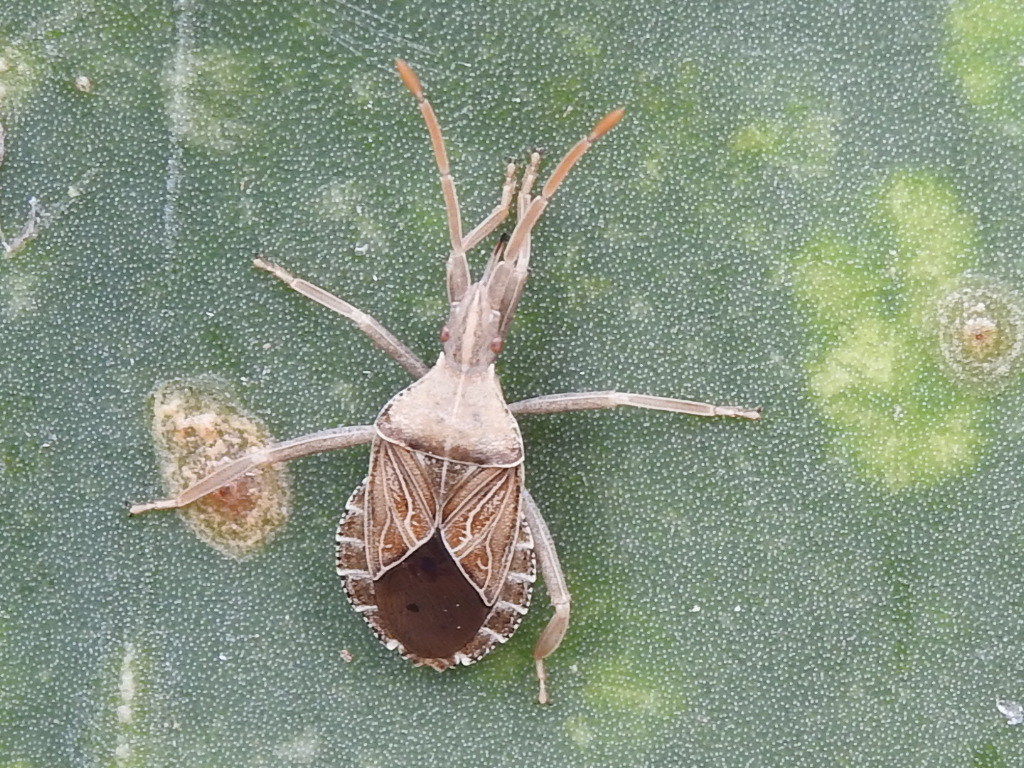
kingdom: Animalia
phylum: Arthropoda
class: Insecta
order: Hemiptera
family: Coreidae
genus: Chelinidea
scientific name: Chelinidea tabulata
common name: Prickly pear bug
